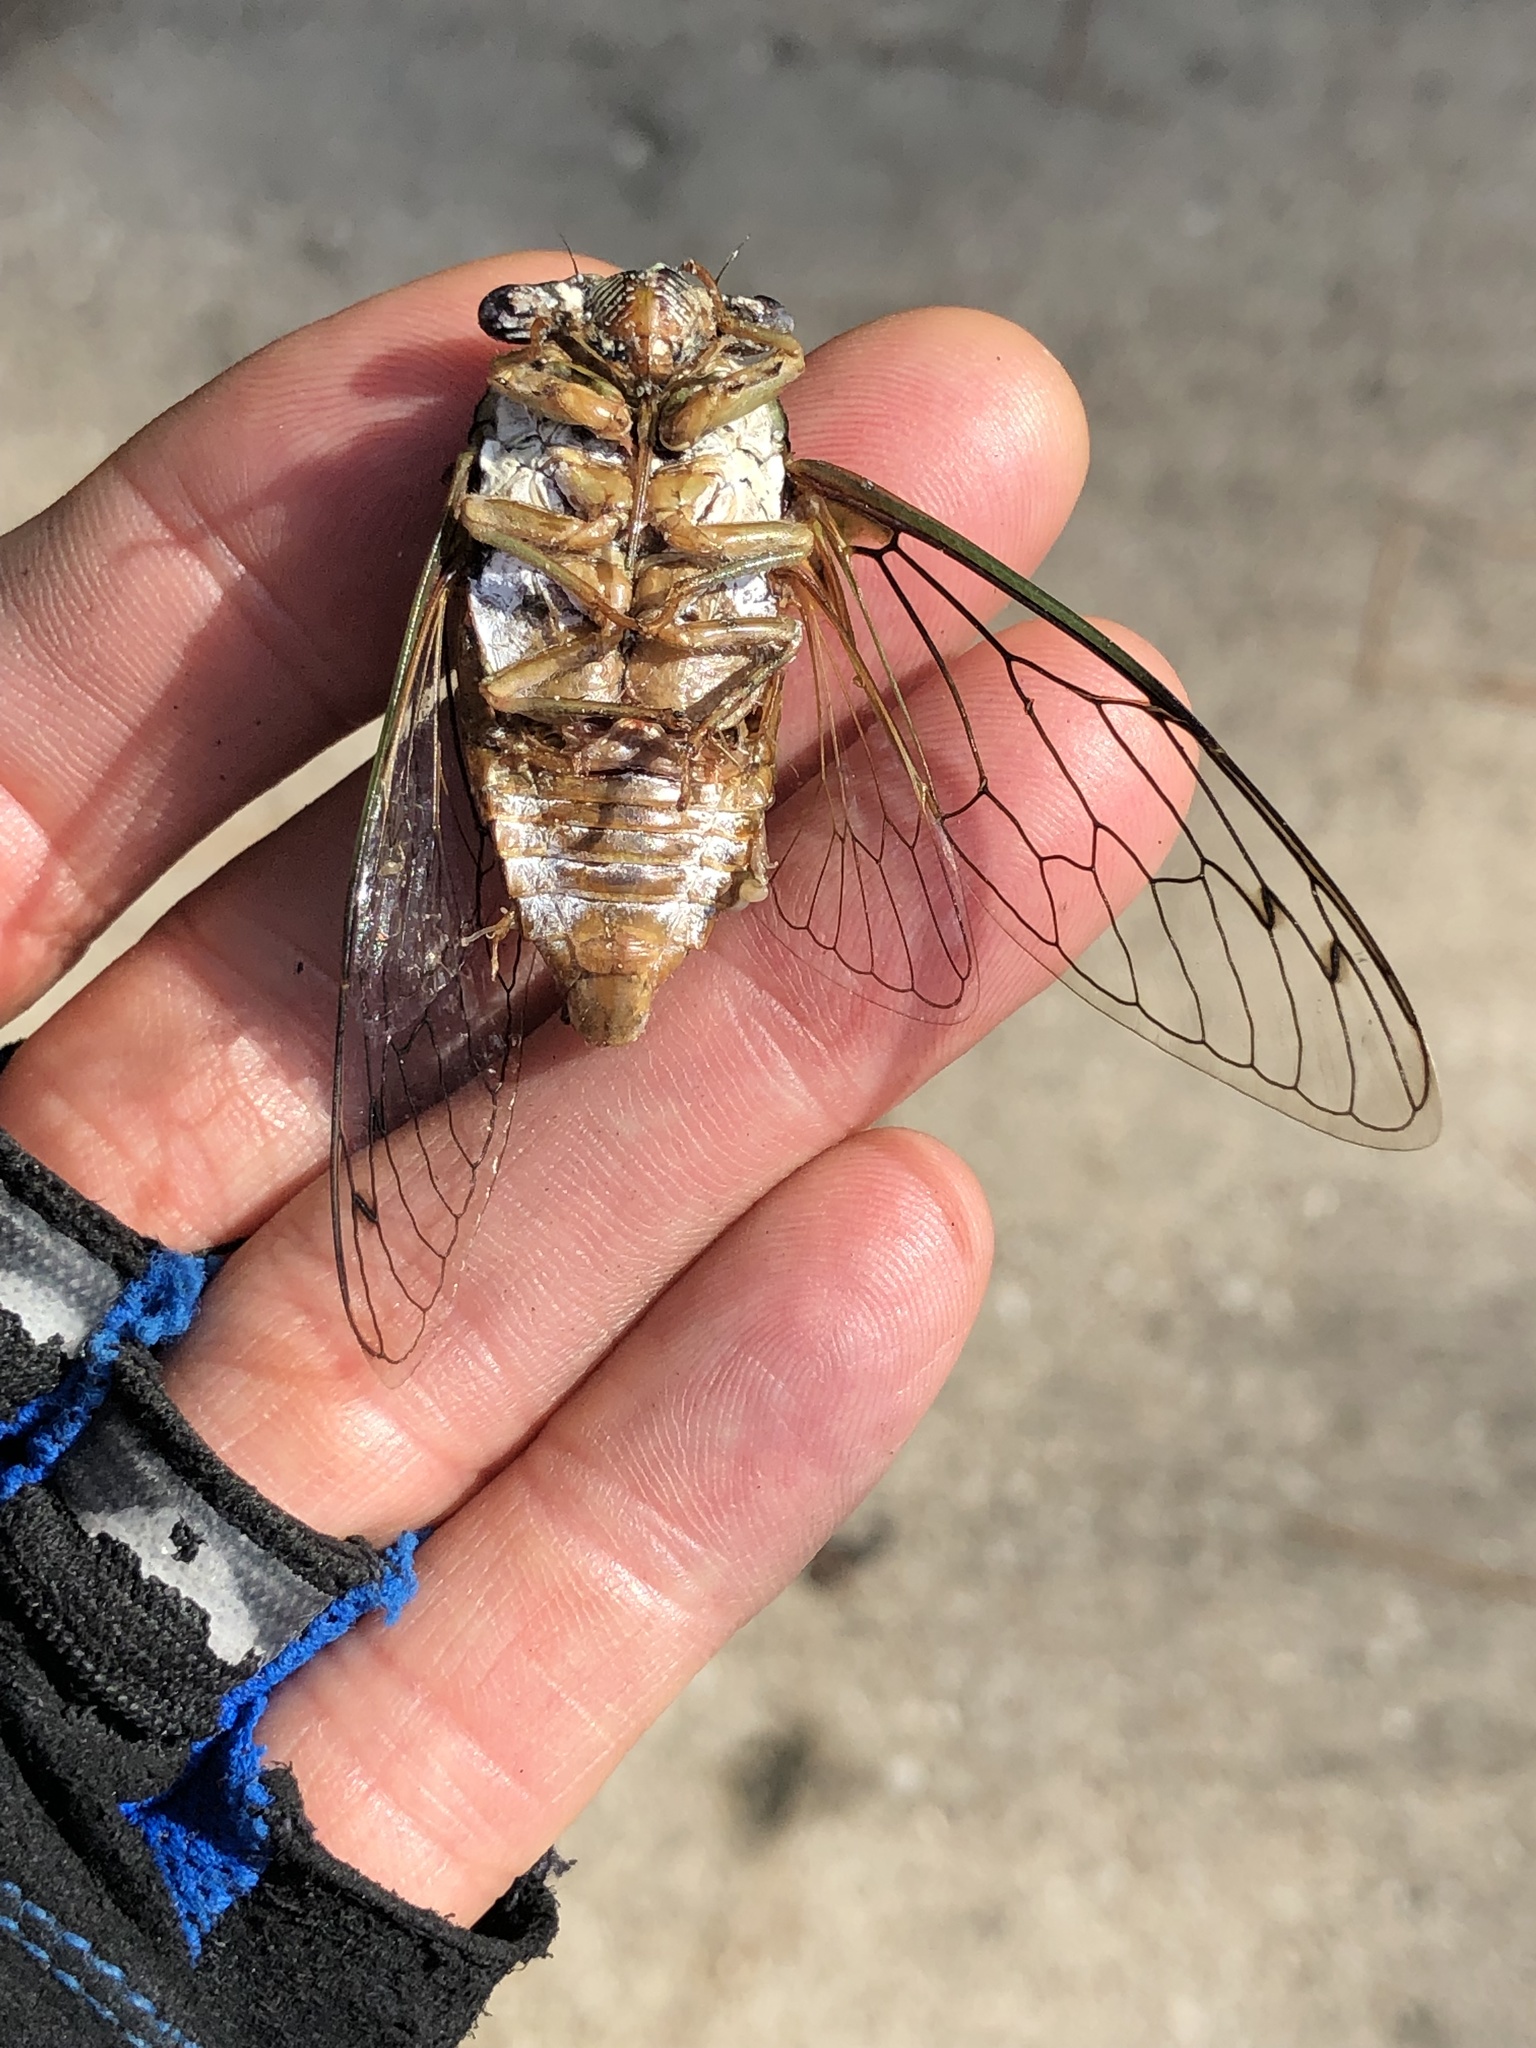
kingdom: Animalia
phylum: Arthropoda
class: Insecta
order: Hemiptera
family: Cicadidae
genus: Megatibicen
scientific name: Megatibicen resh
